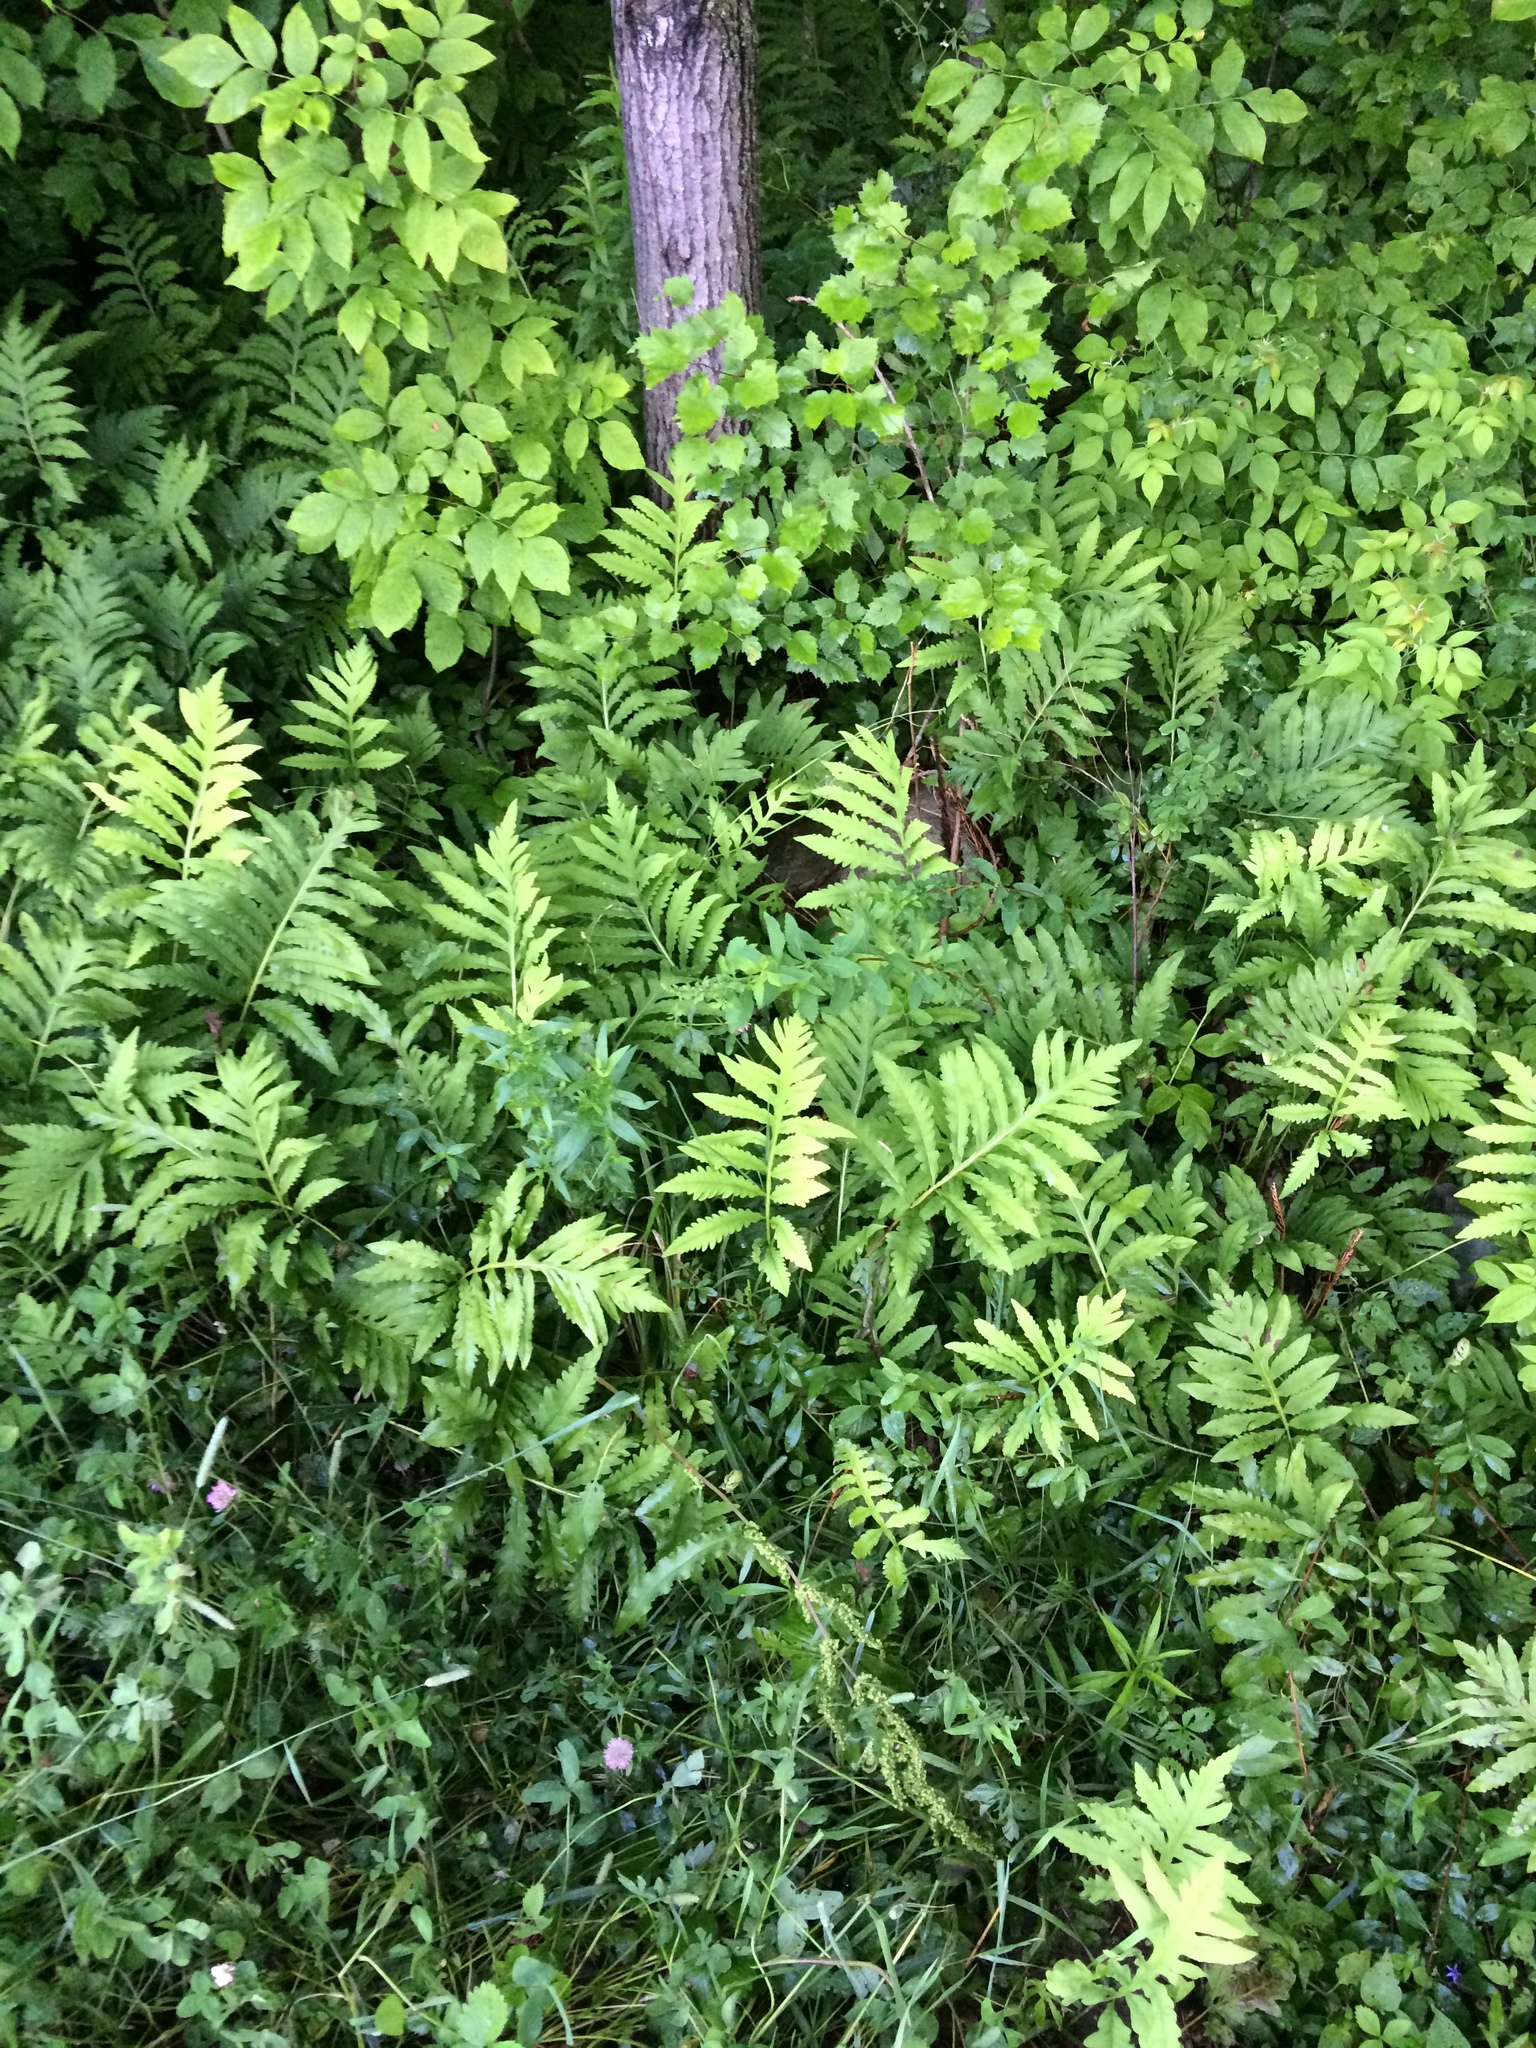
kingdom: Plantae
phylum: Tracheophyta
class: Polypodiopsida
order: Polypodiales
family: Onocleaceae
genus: Onoclea
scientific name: Onoclea sensibilis
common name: Sensitive fern
